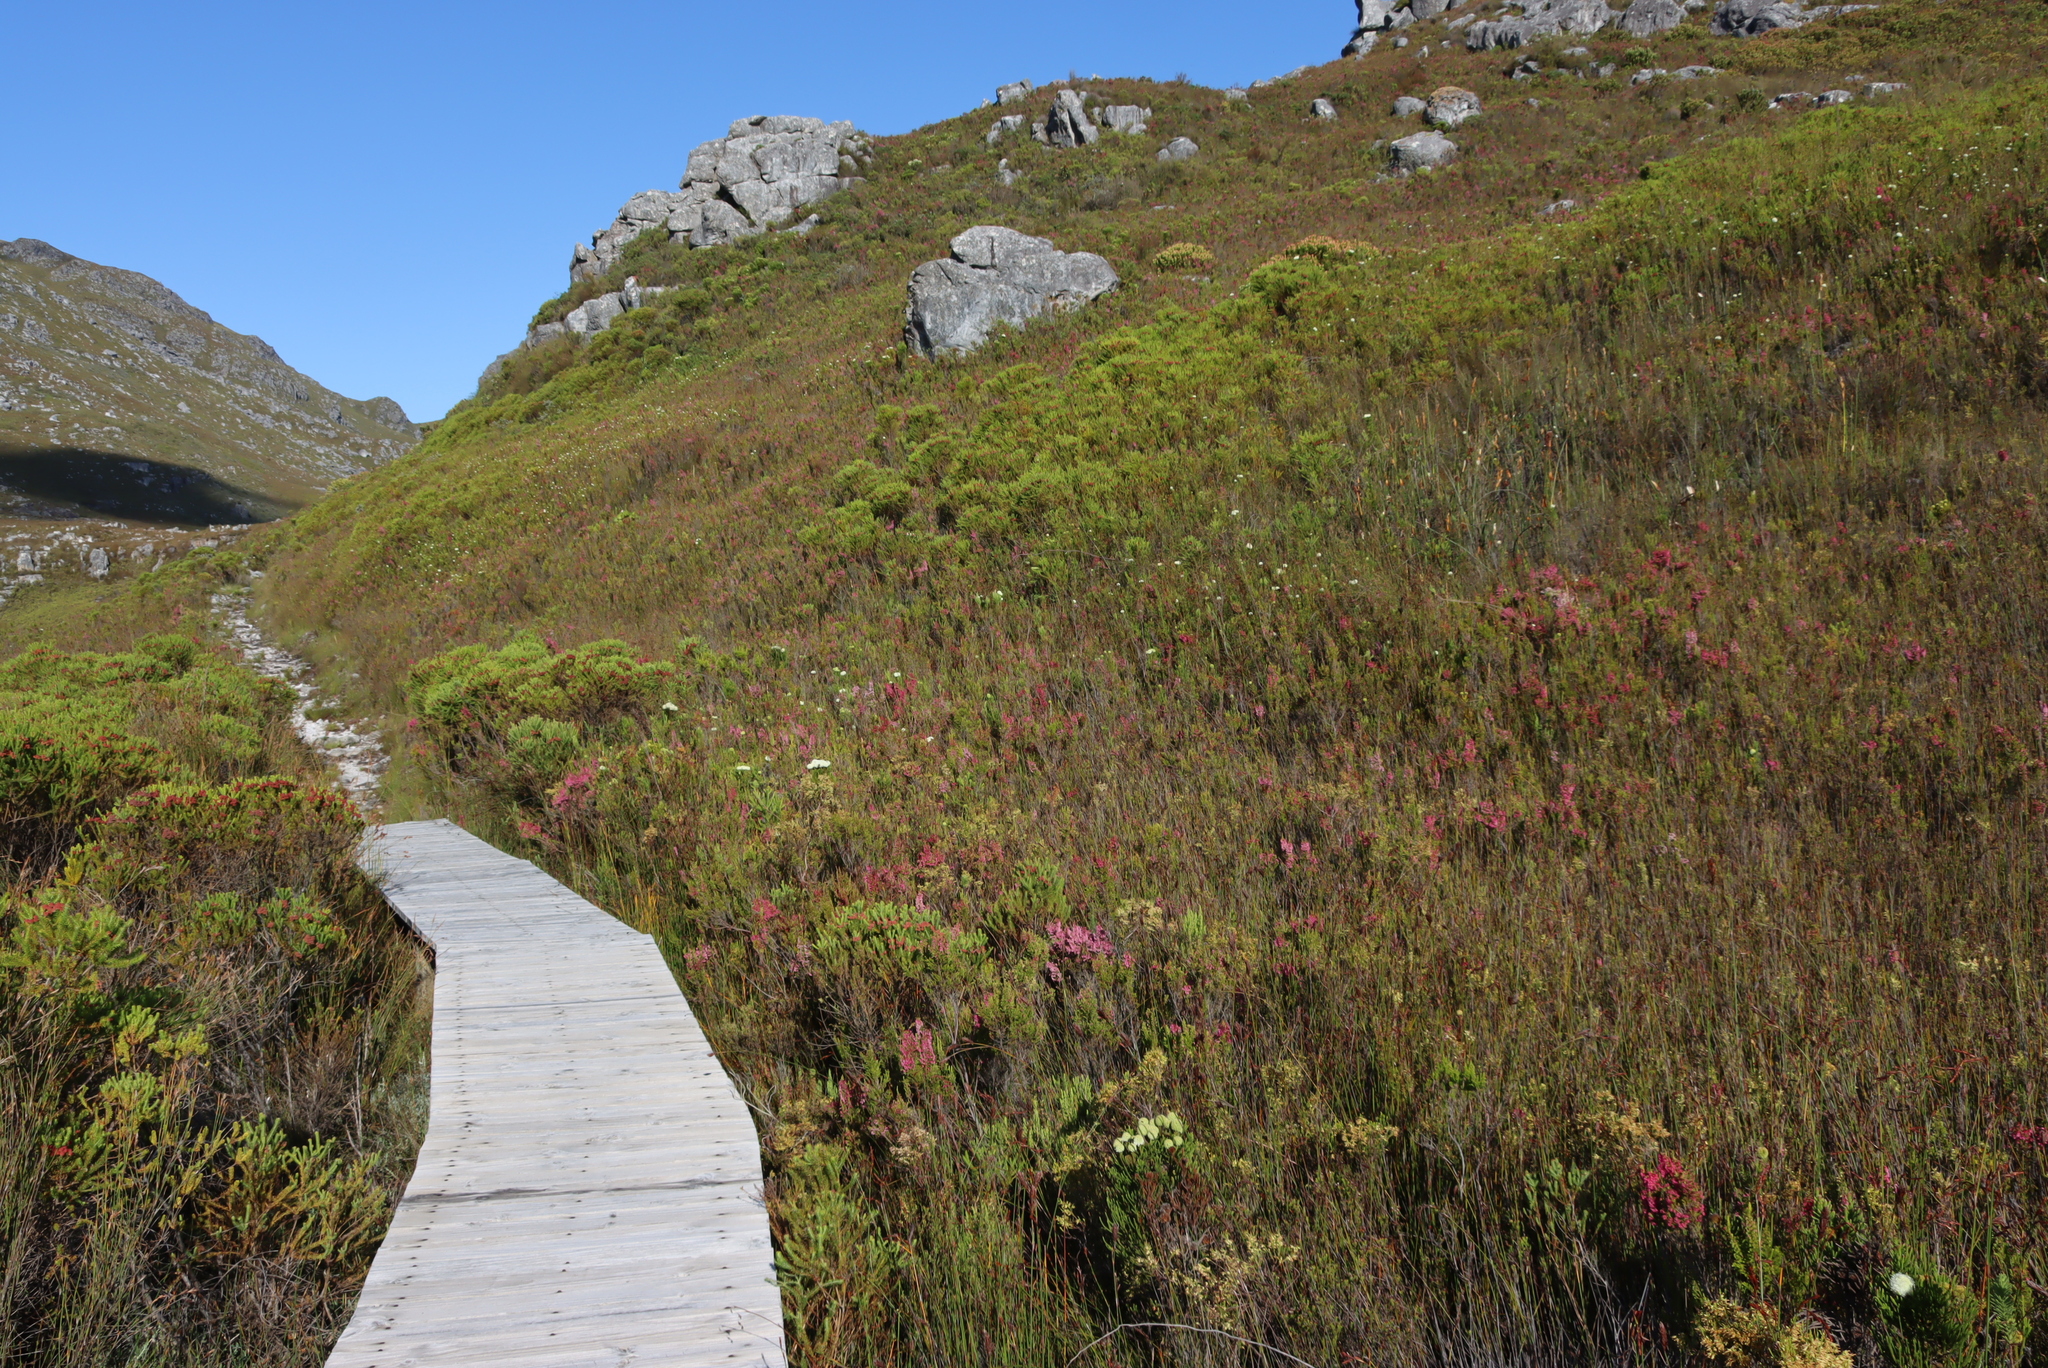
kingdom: Plantae
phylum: Tracheophyta
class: Magnoliopsida
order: Ericales
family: Ericaceae
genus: Erica
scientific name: Erica sitiens
